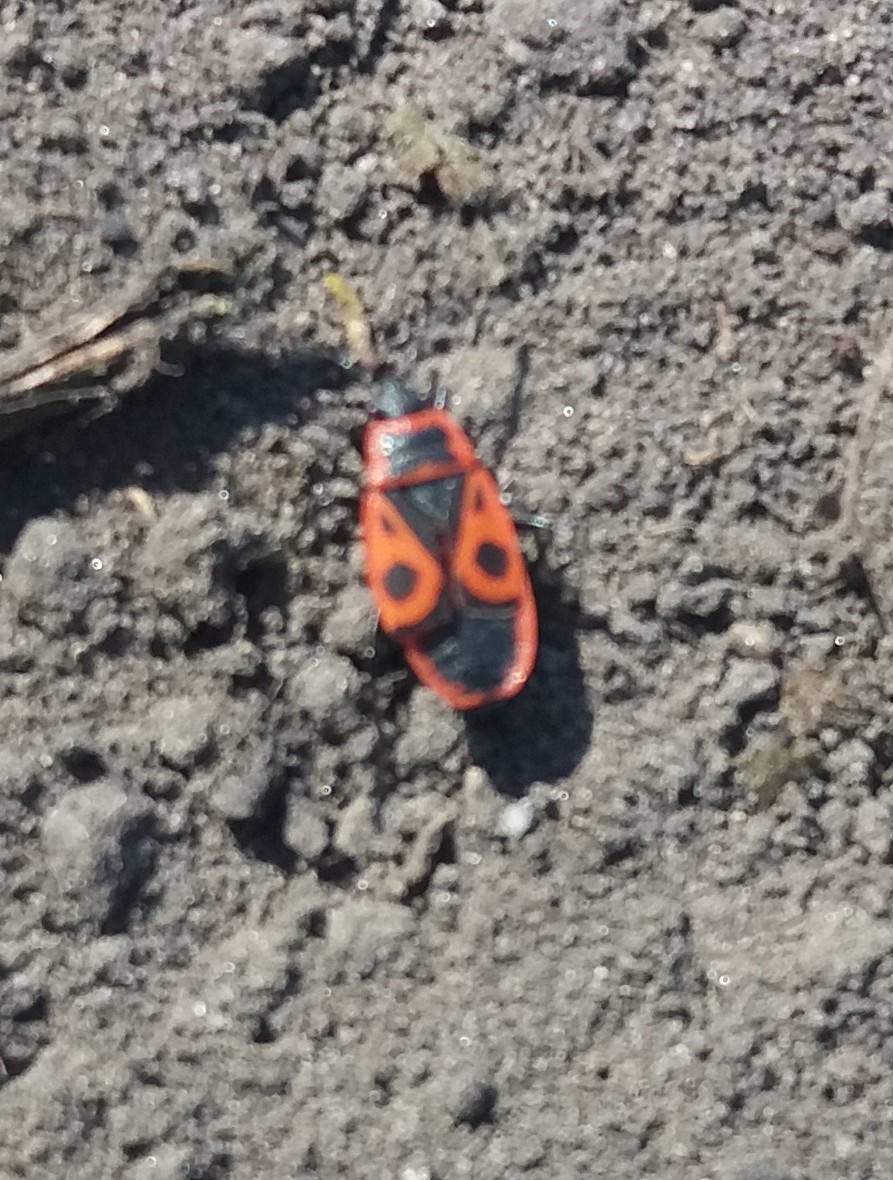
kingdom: Animalia
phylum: Arthropoda
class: Insecta
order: Hemiptera
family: Pyrrhocoridae
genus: Pyrrhocoris
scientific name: Pyrrhocoris apterus
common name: Firebug
